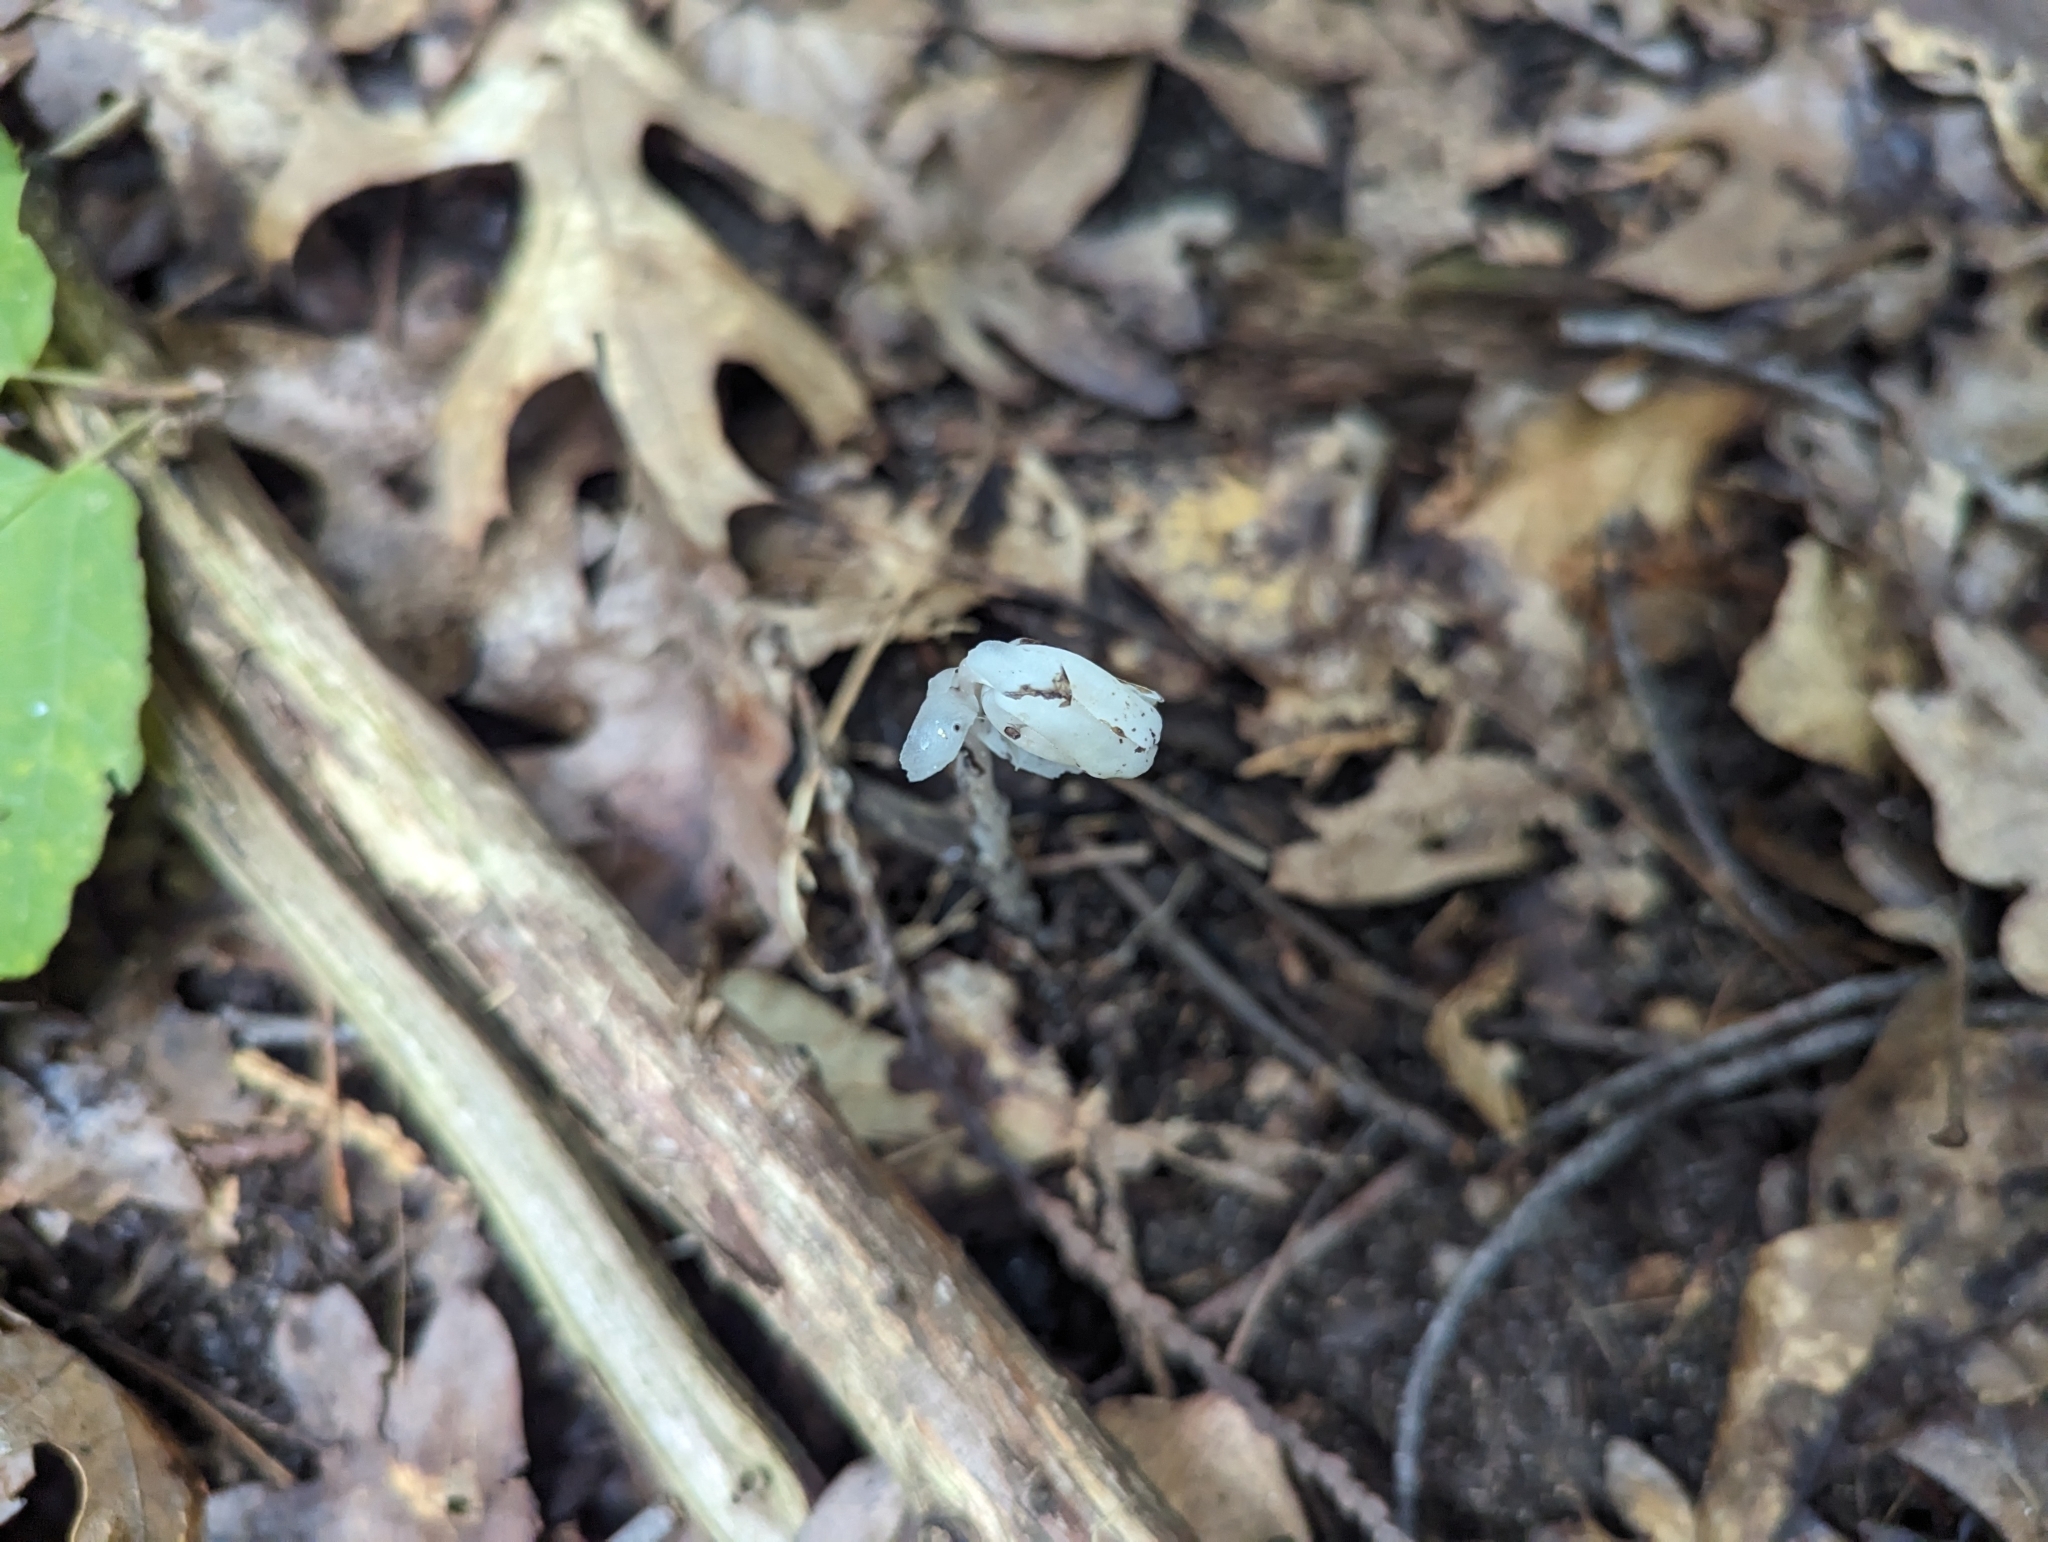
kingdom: Plantae
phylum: Tracheophyta
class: Magnoliopsida
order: Ericales
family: Ericaceae
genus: Monotropa
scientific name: Monotropa uniflora
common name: Convulsion root
